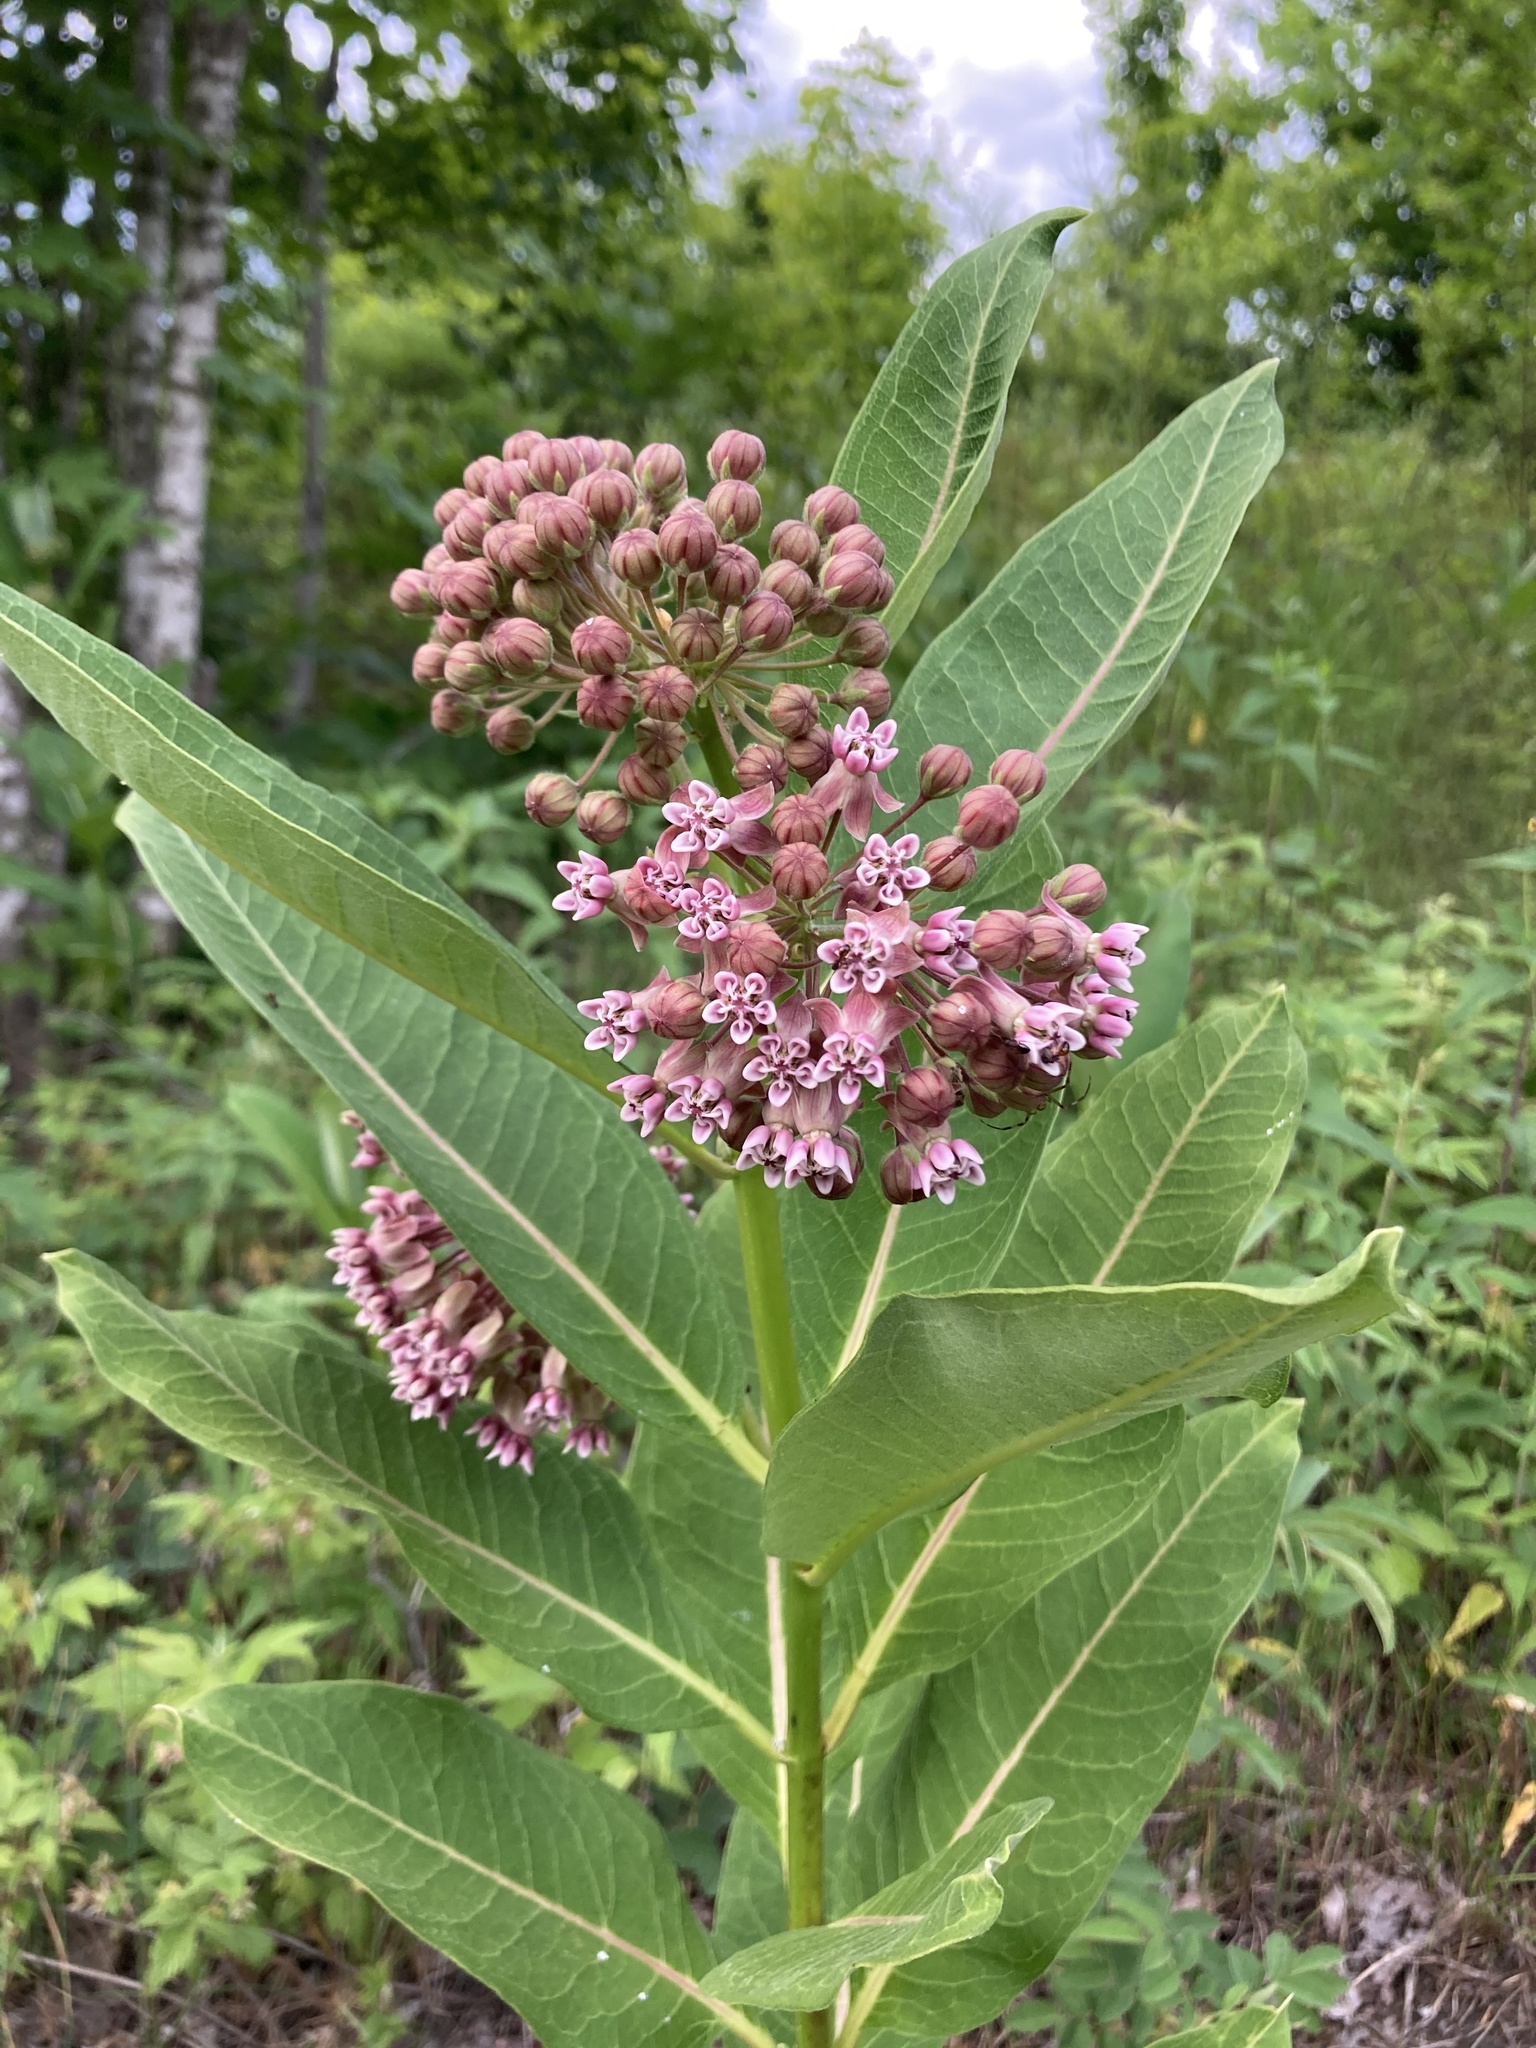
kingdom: Plantae
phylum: Tracheophyta
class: Magnoliopsida
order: Gentianales
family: Apocynaceae
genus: Asclepias
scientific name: Asclepias syriaca
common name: Common milkweed
